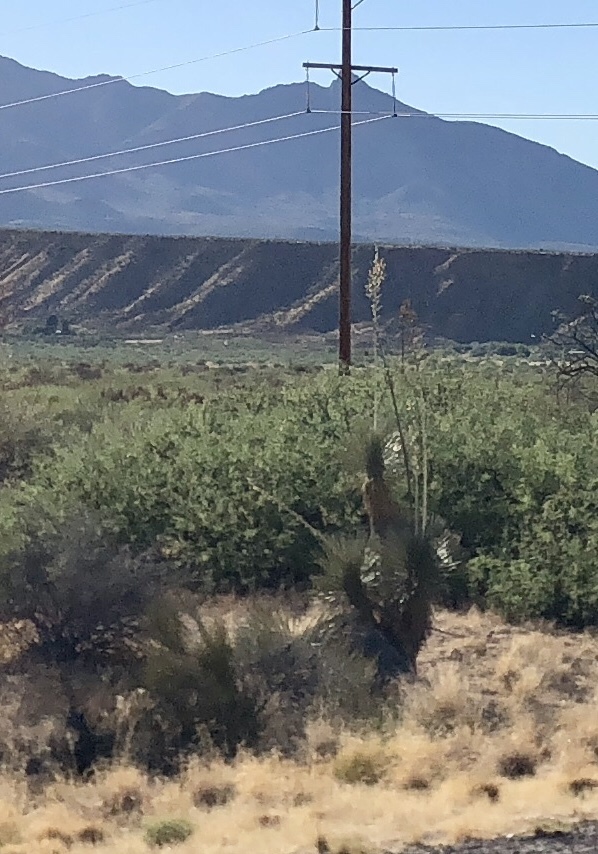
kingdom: Plantae
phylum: Tracheophyta
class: Liliopsida
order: Asparagales
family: Asparagaceae
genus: Yucca
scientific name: Yucca elata
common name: Palmella
